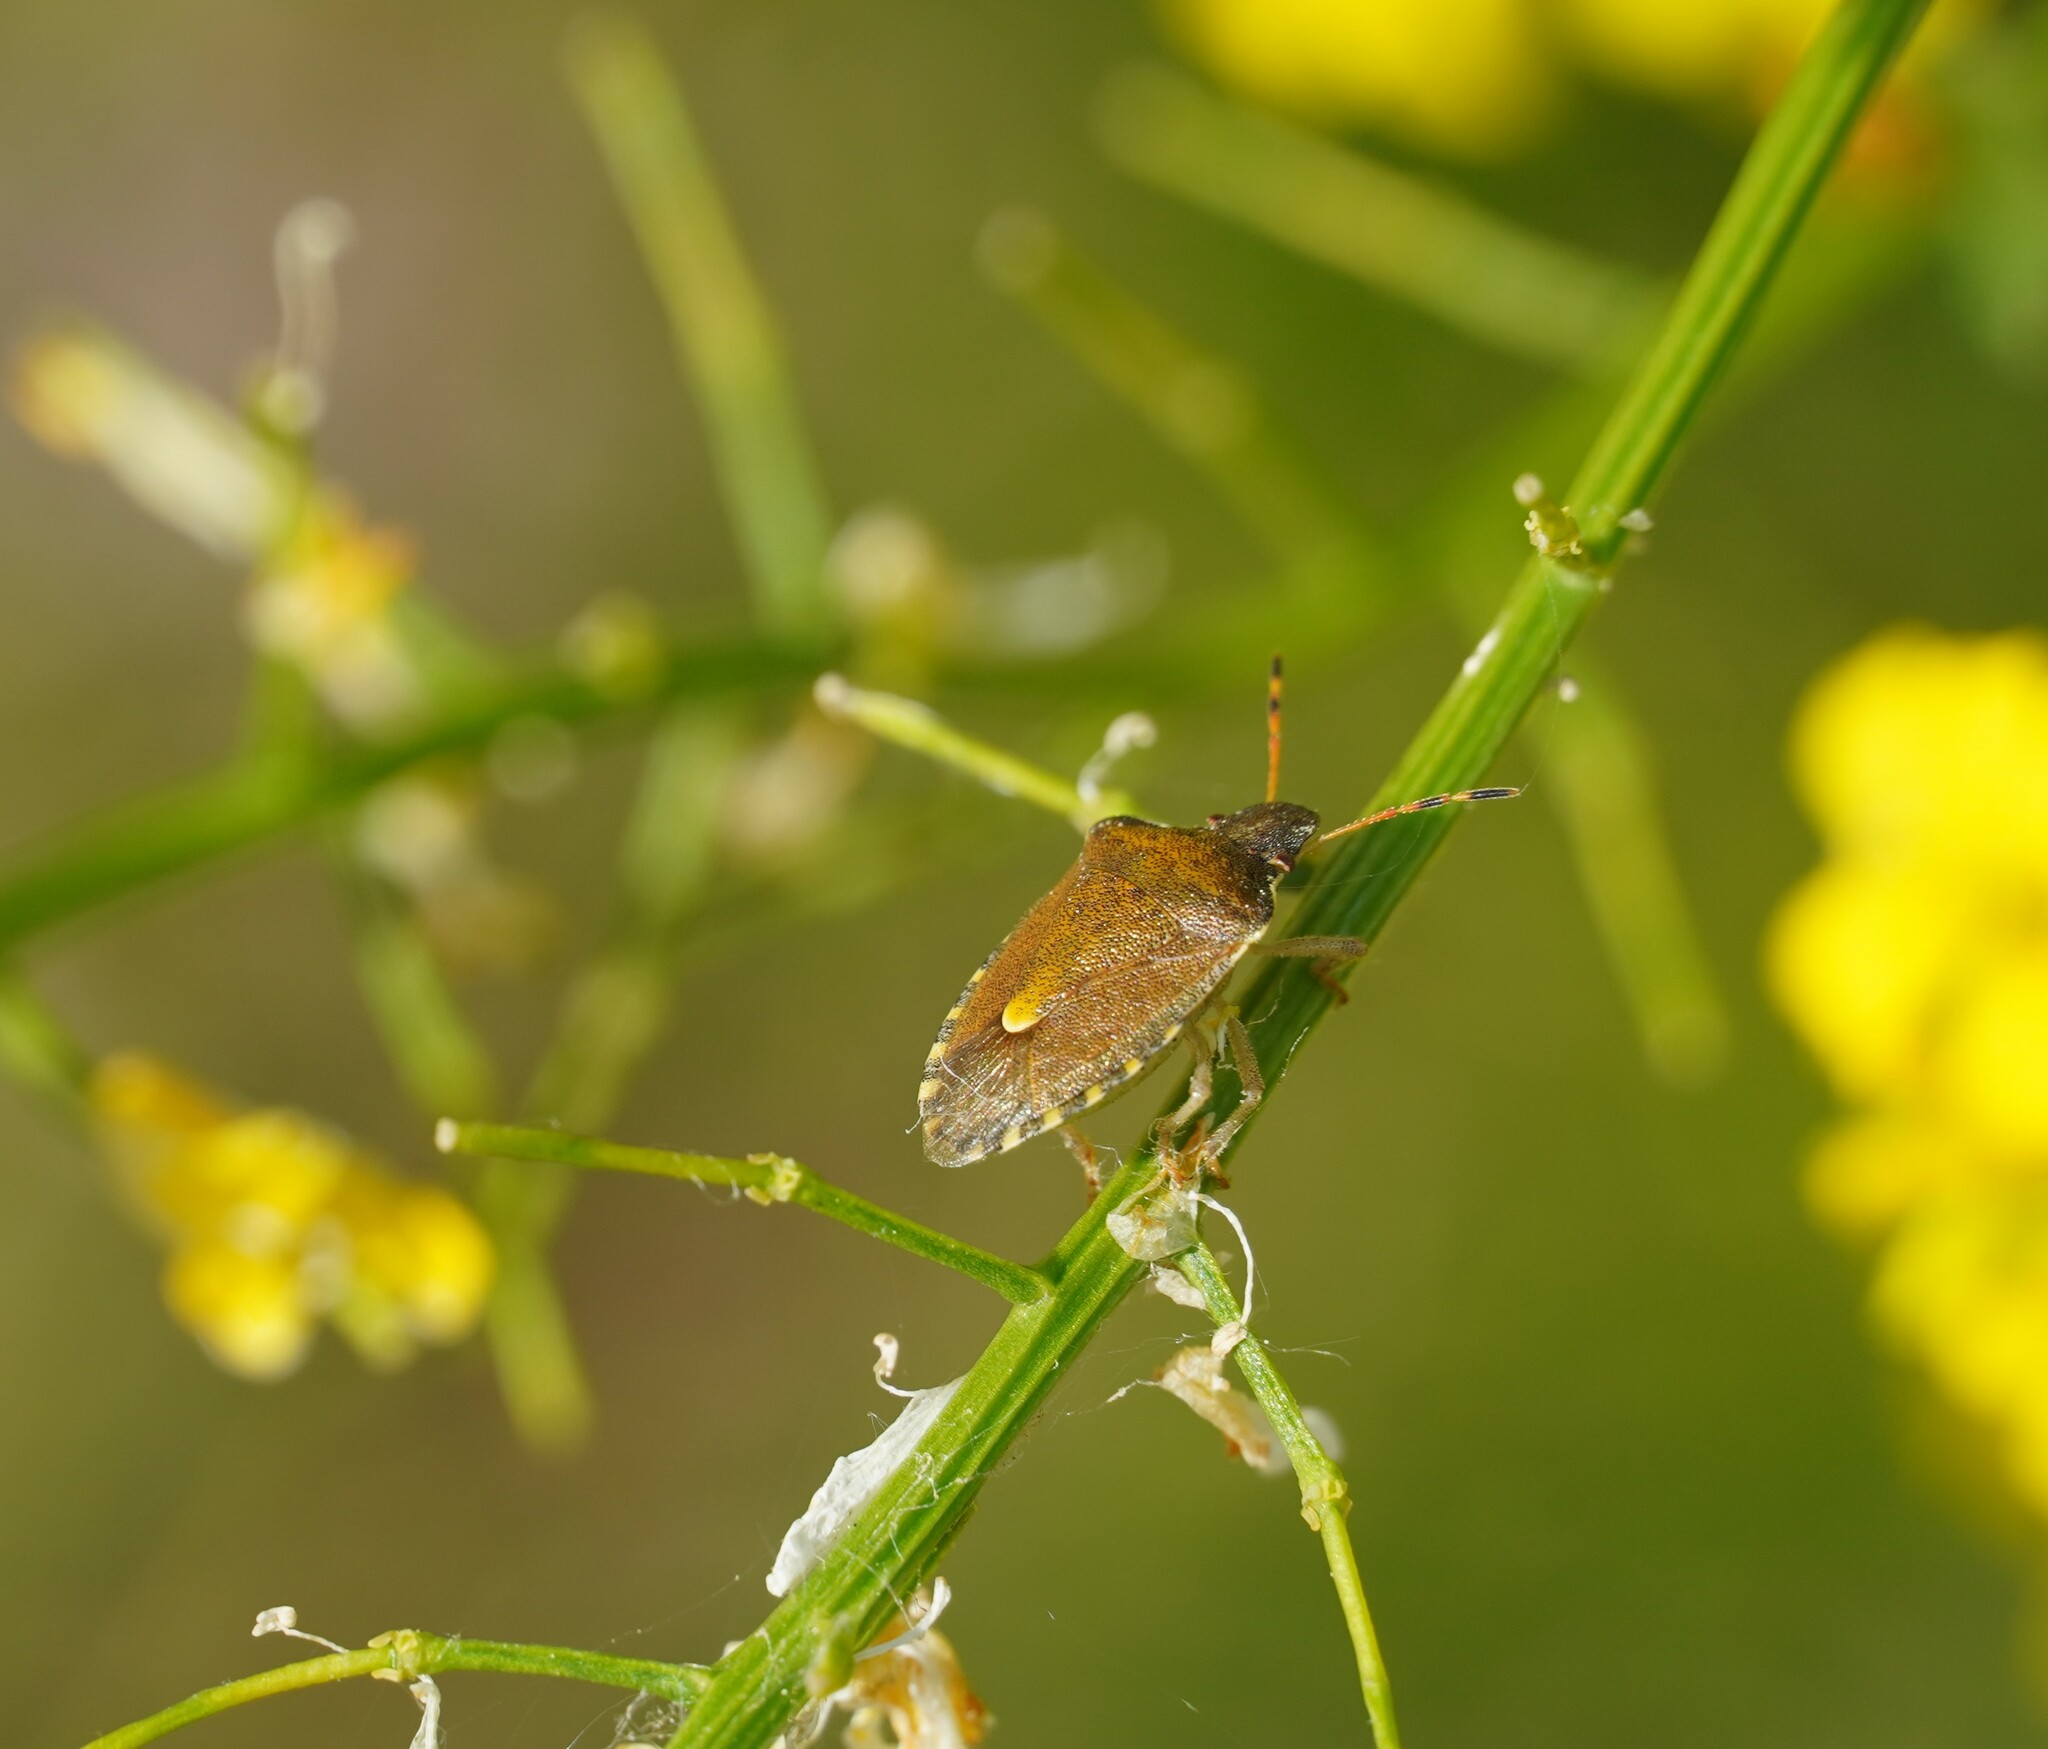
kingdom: Animalia
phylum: Arthropoda
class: Insecta
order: Hemiptera
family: Pentatomidae
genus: Holcostethus
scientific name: Holcostethus strictus
